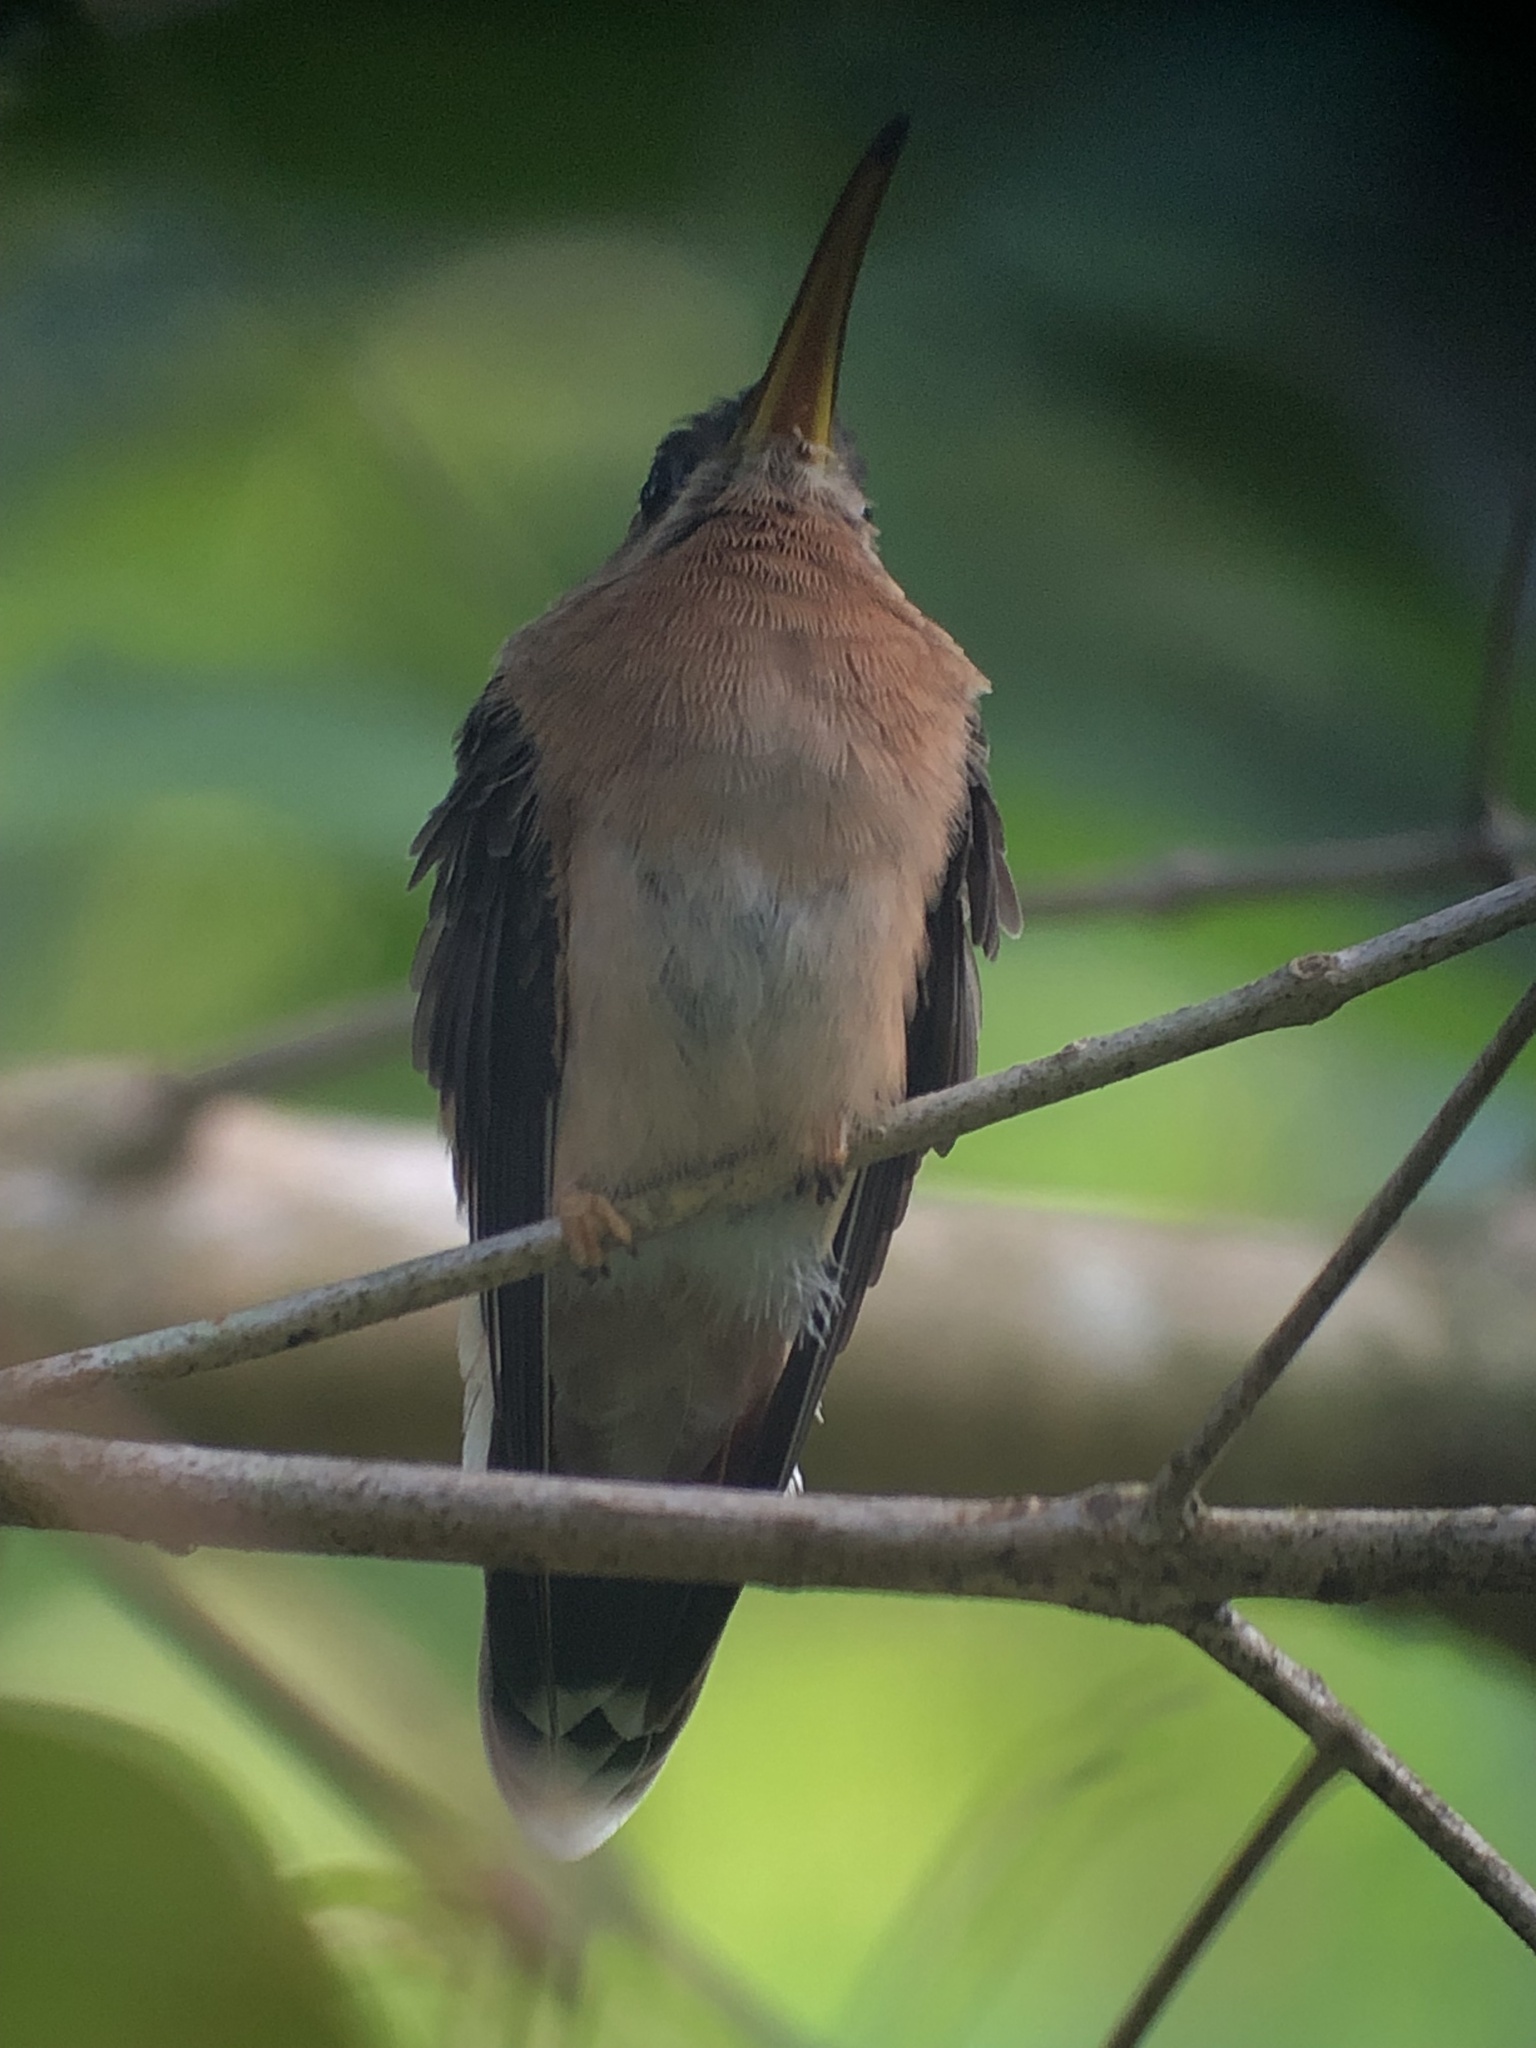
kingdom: Animalia
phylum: Chordata
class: Aves
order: Apodiformes
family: Trochilidae
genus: Glaucis
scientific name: Glaucis aeneus
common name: Bronzy hermit
